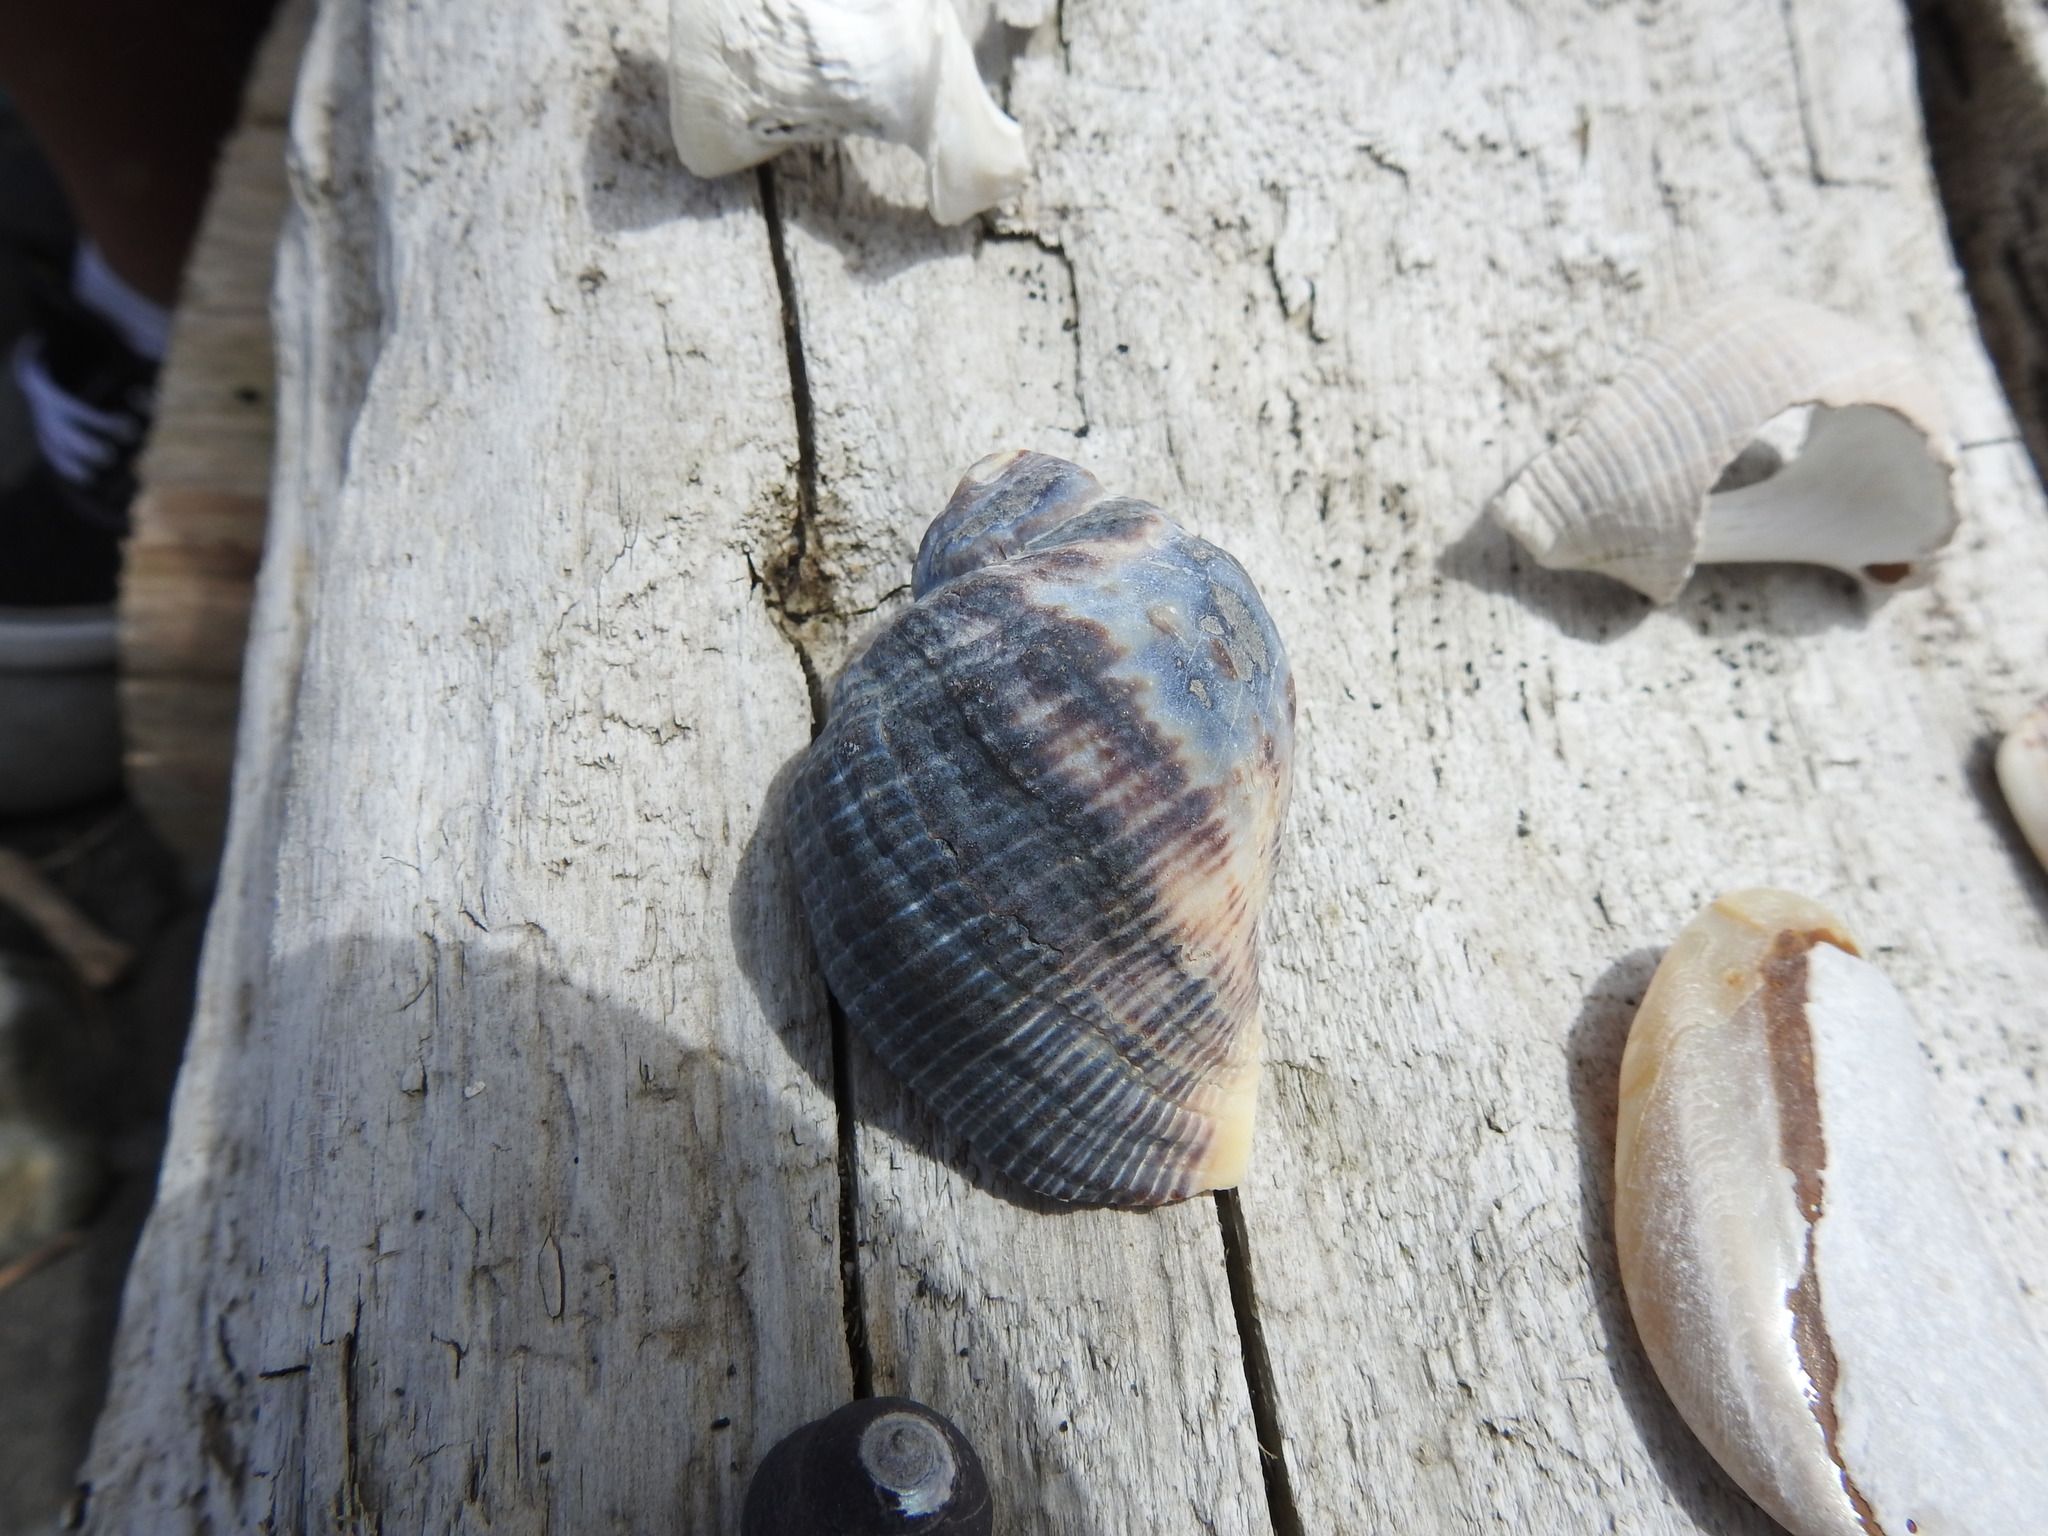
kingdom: Animalia
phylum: Mollusca
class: Gastropoda
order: Neogastropoda
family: Muricidae
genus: Haustrum
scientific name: Haustrum haustorium
